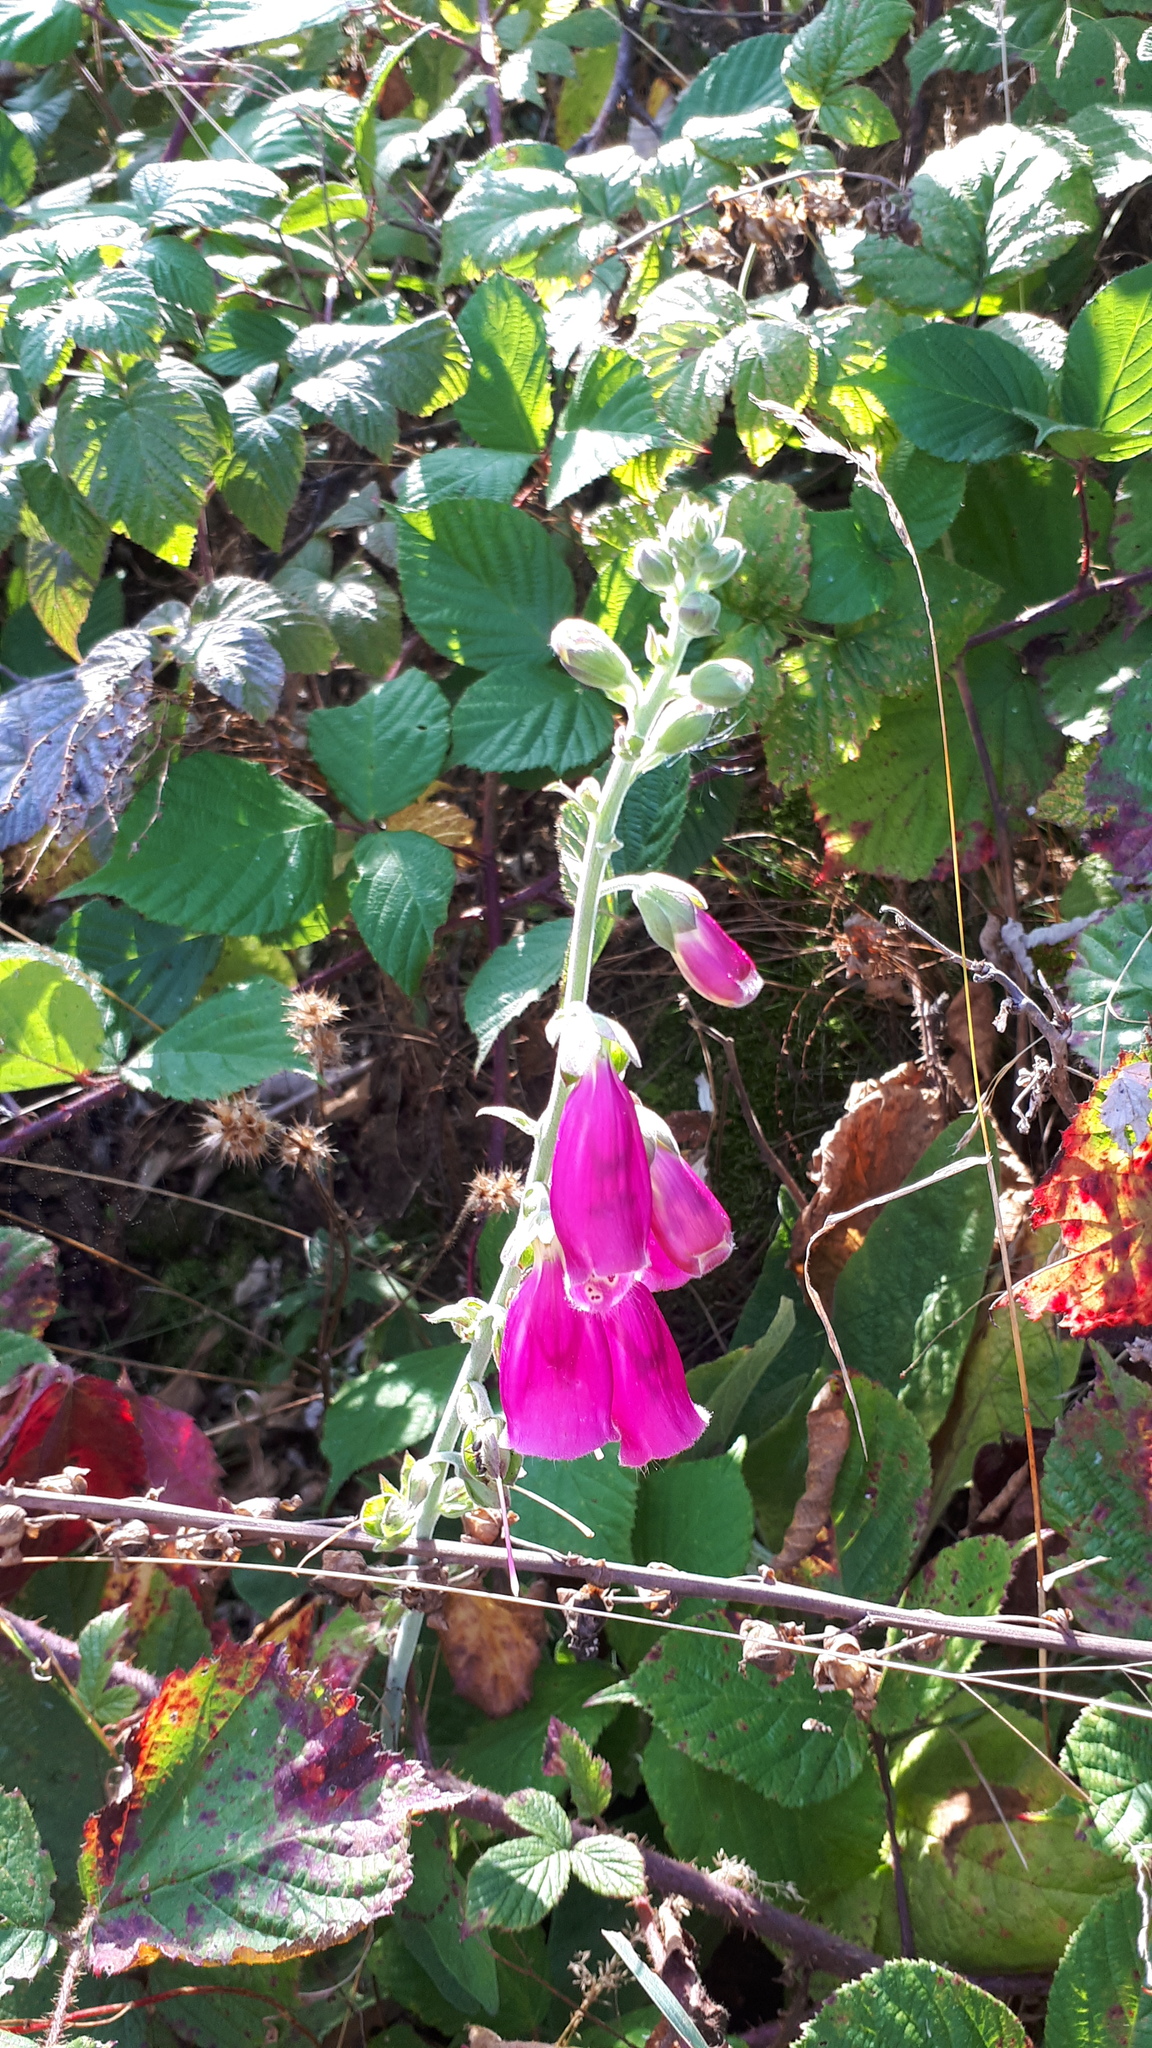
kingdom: Plantae
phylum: Tracheophyta
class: Magnoliopsida
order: Lamiales
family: Plantaginaceae
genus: Digitalis
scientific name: Digitalis purpurea
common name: Foxglove
